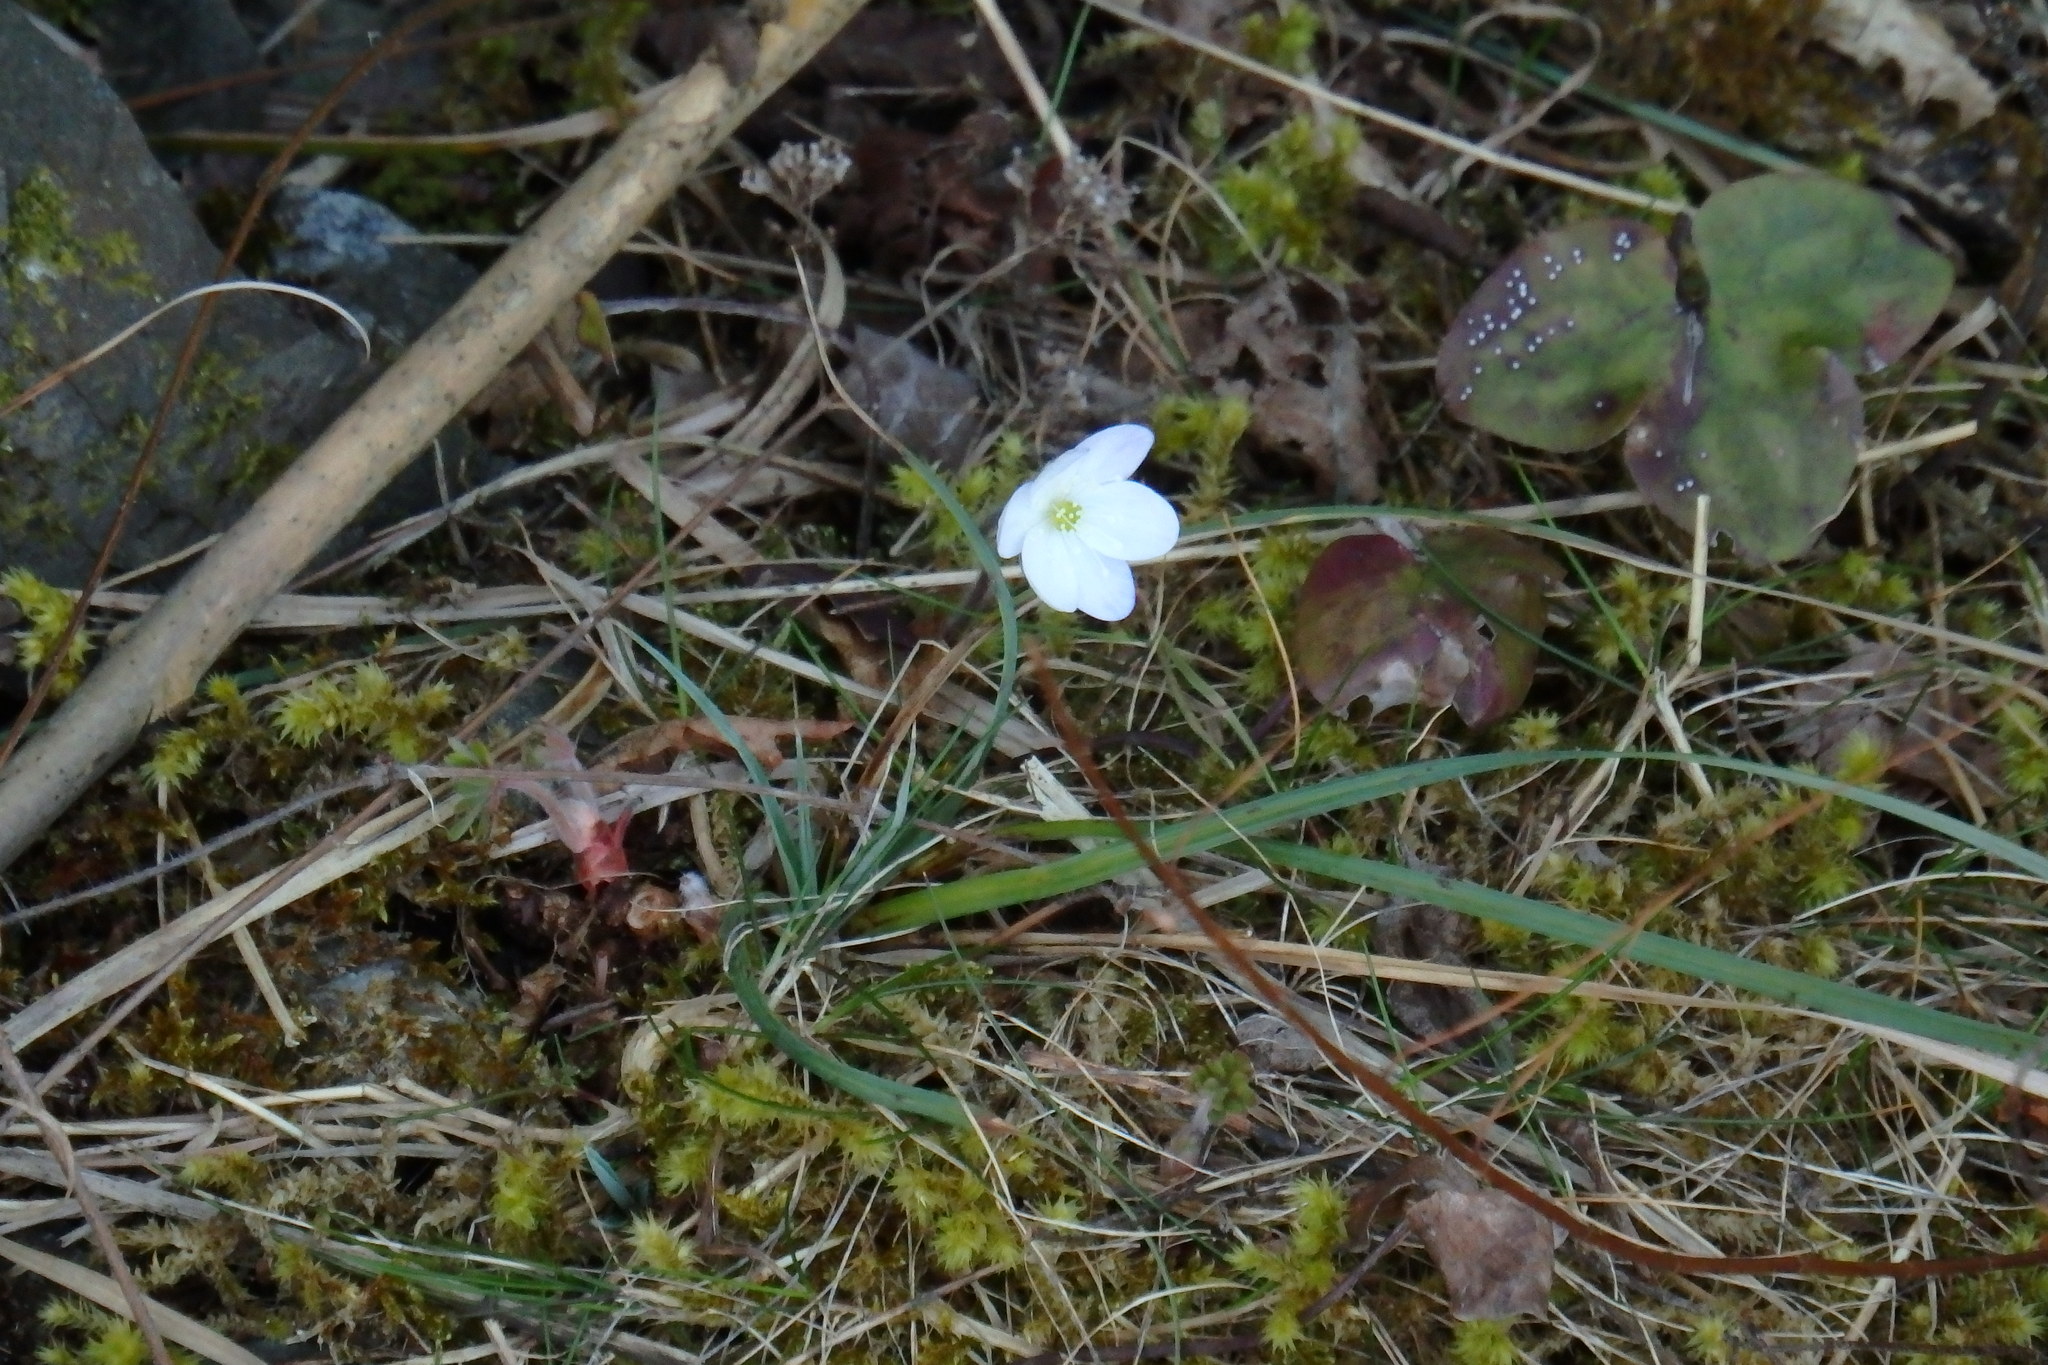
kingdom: Plantae
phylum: Tracheophyta
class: Magnoliopsida
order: Ranunculales
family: Ranunculaceae
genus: Hepatica
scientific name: Hepatica nobilis
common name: Liverleaf
